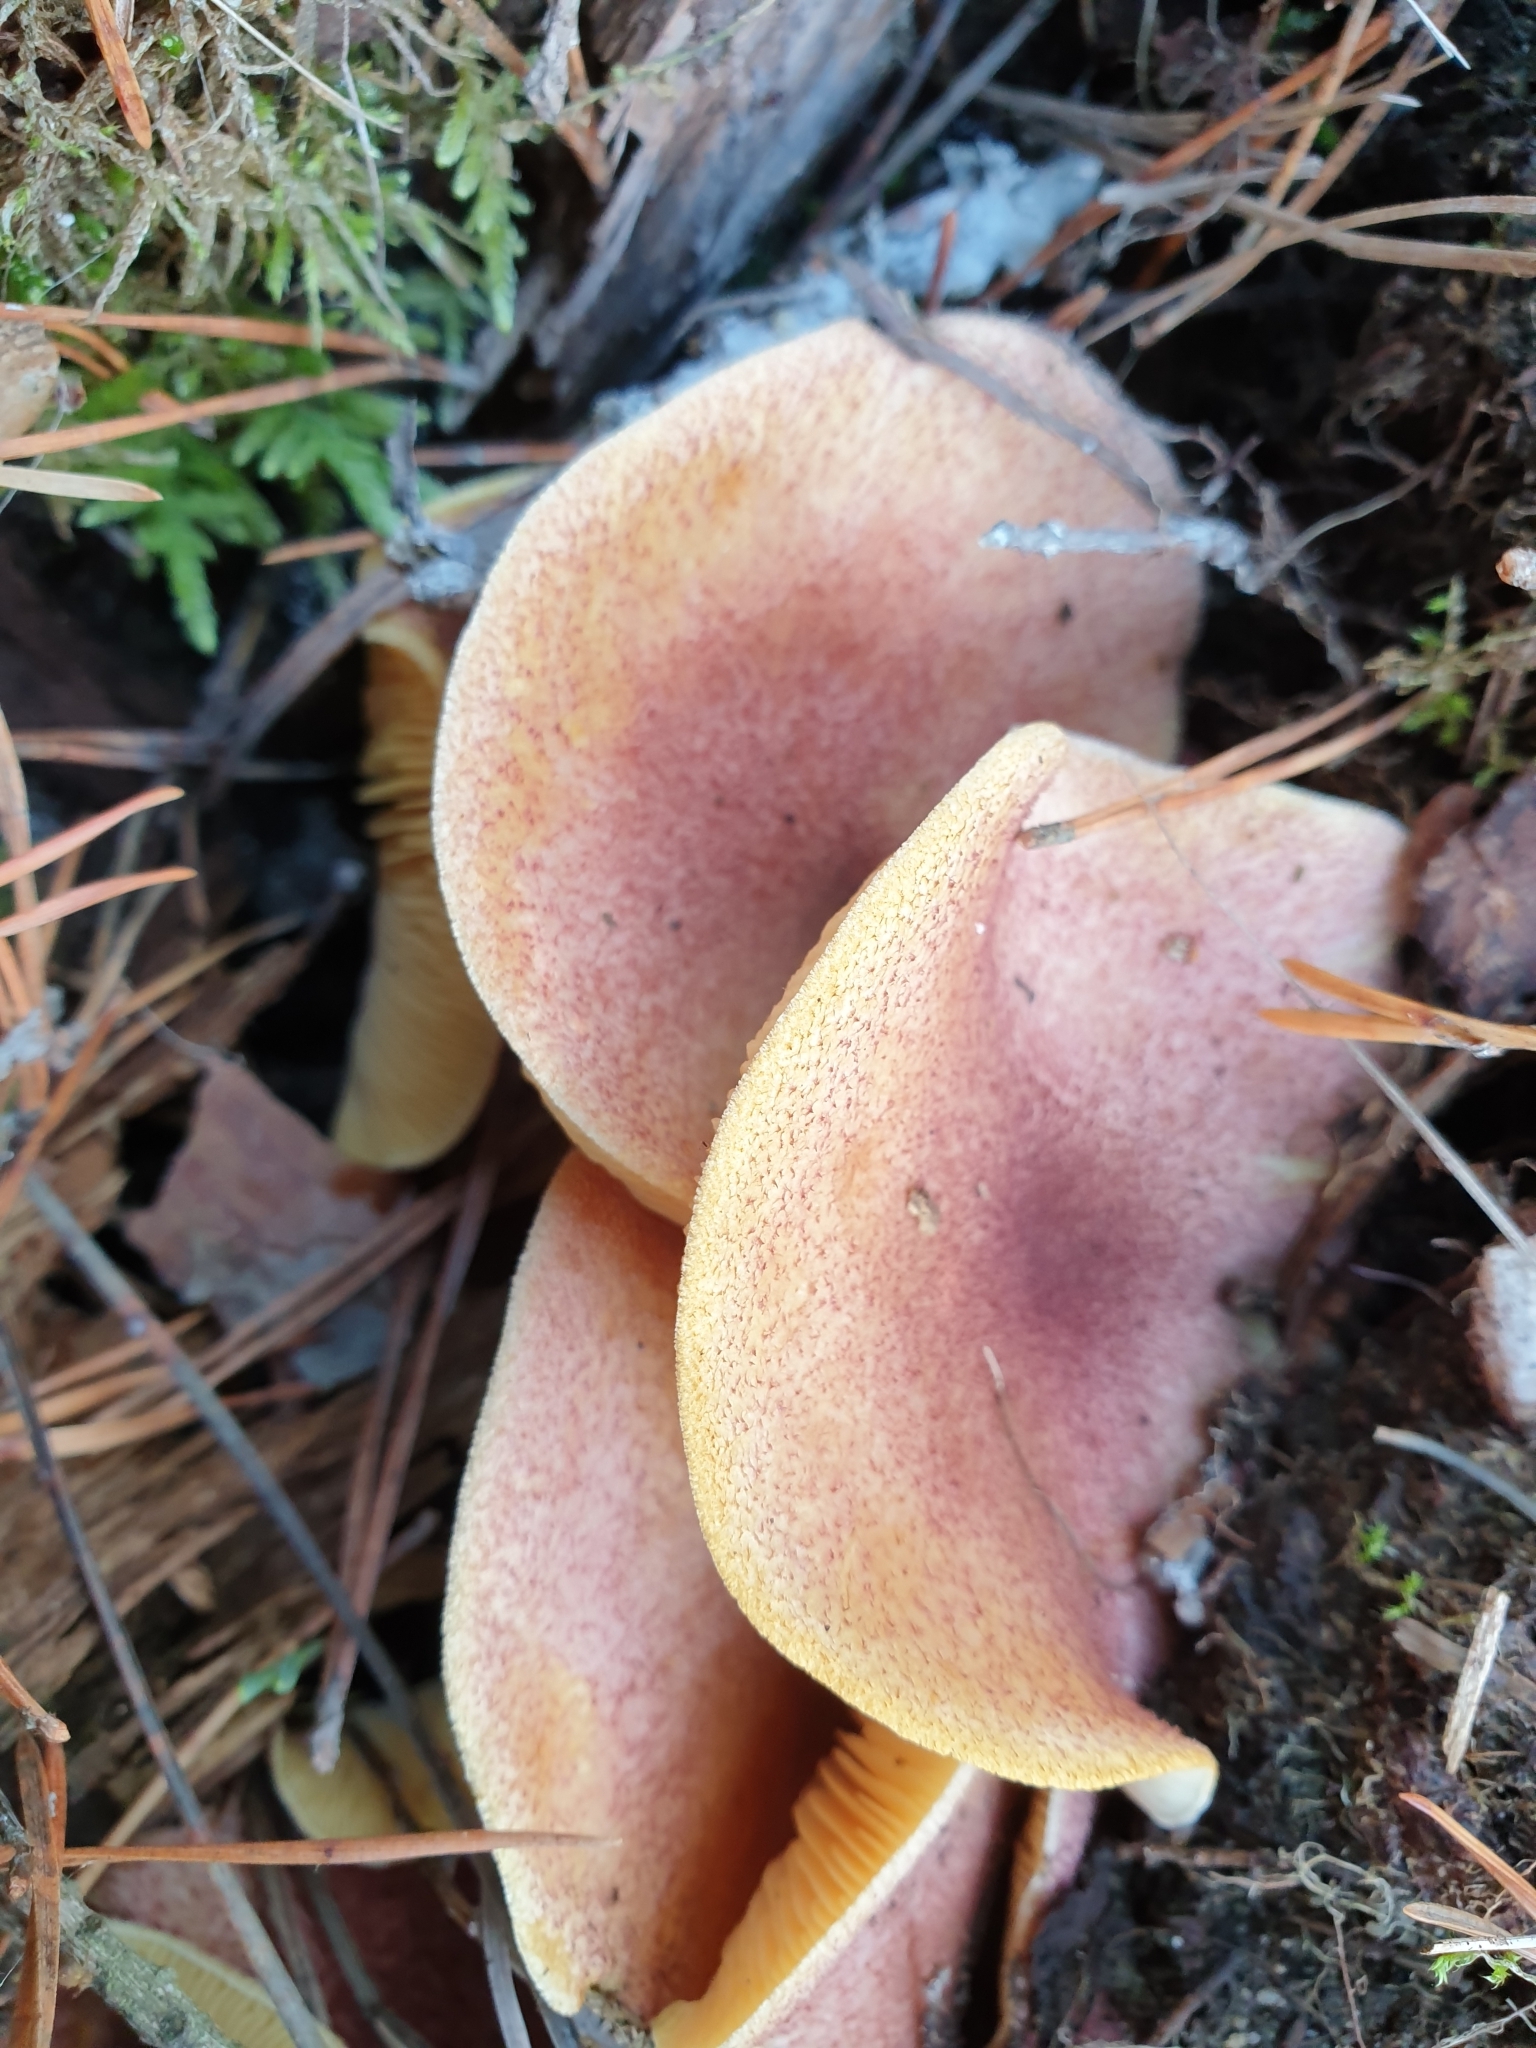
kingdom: Fungi
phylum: Basidiomycota
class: Agaricomycetes
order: Agaricales
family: Tricholomataceae
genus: Tricholomopsis
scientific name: Tricholomopsis rutilans
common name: Plums and custard
